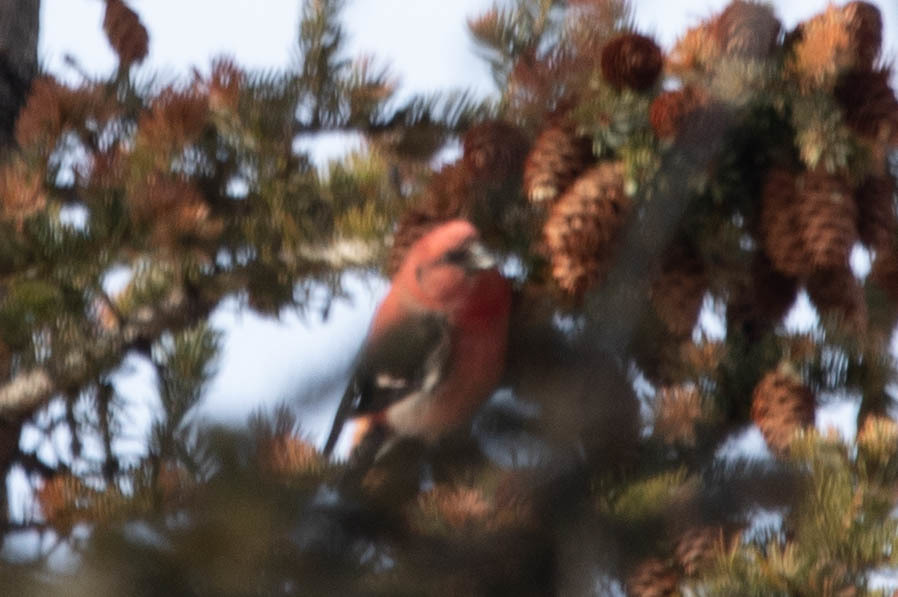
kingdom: Animalia
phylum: Chordata
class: Aves
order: Passeriformes
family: Fringillidae
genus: Loxia
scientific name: Loxia leucoptera
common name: Two-barred crossbill
